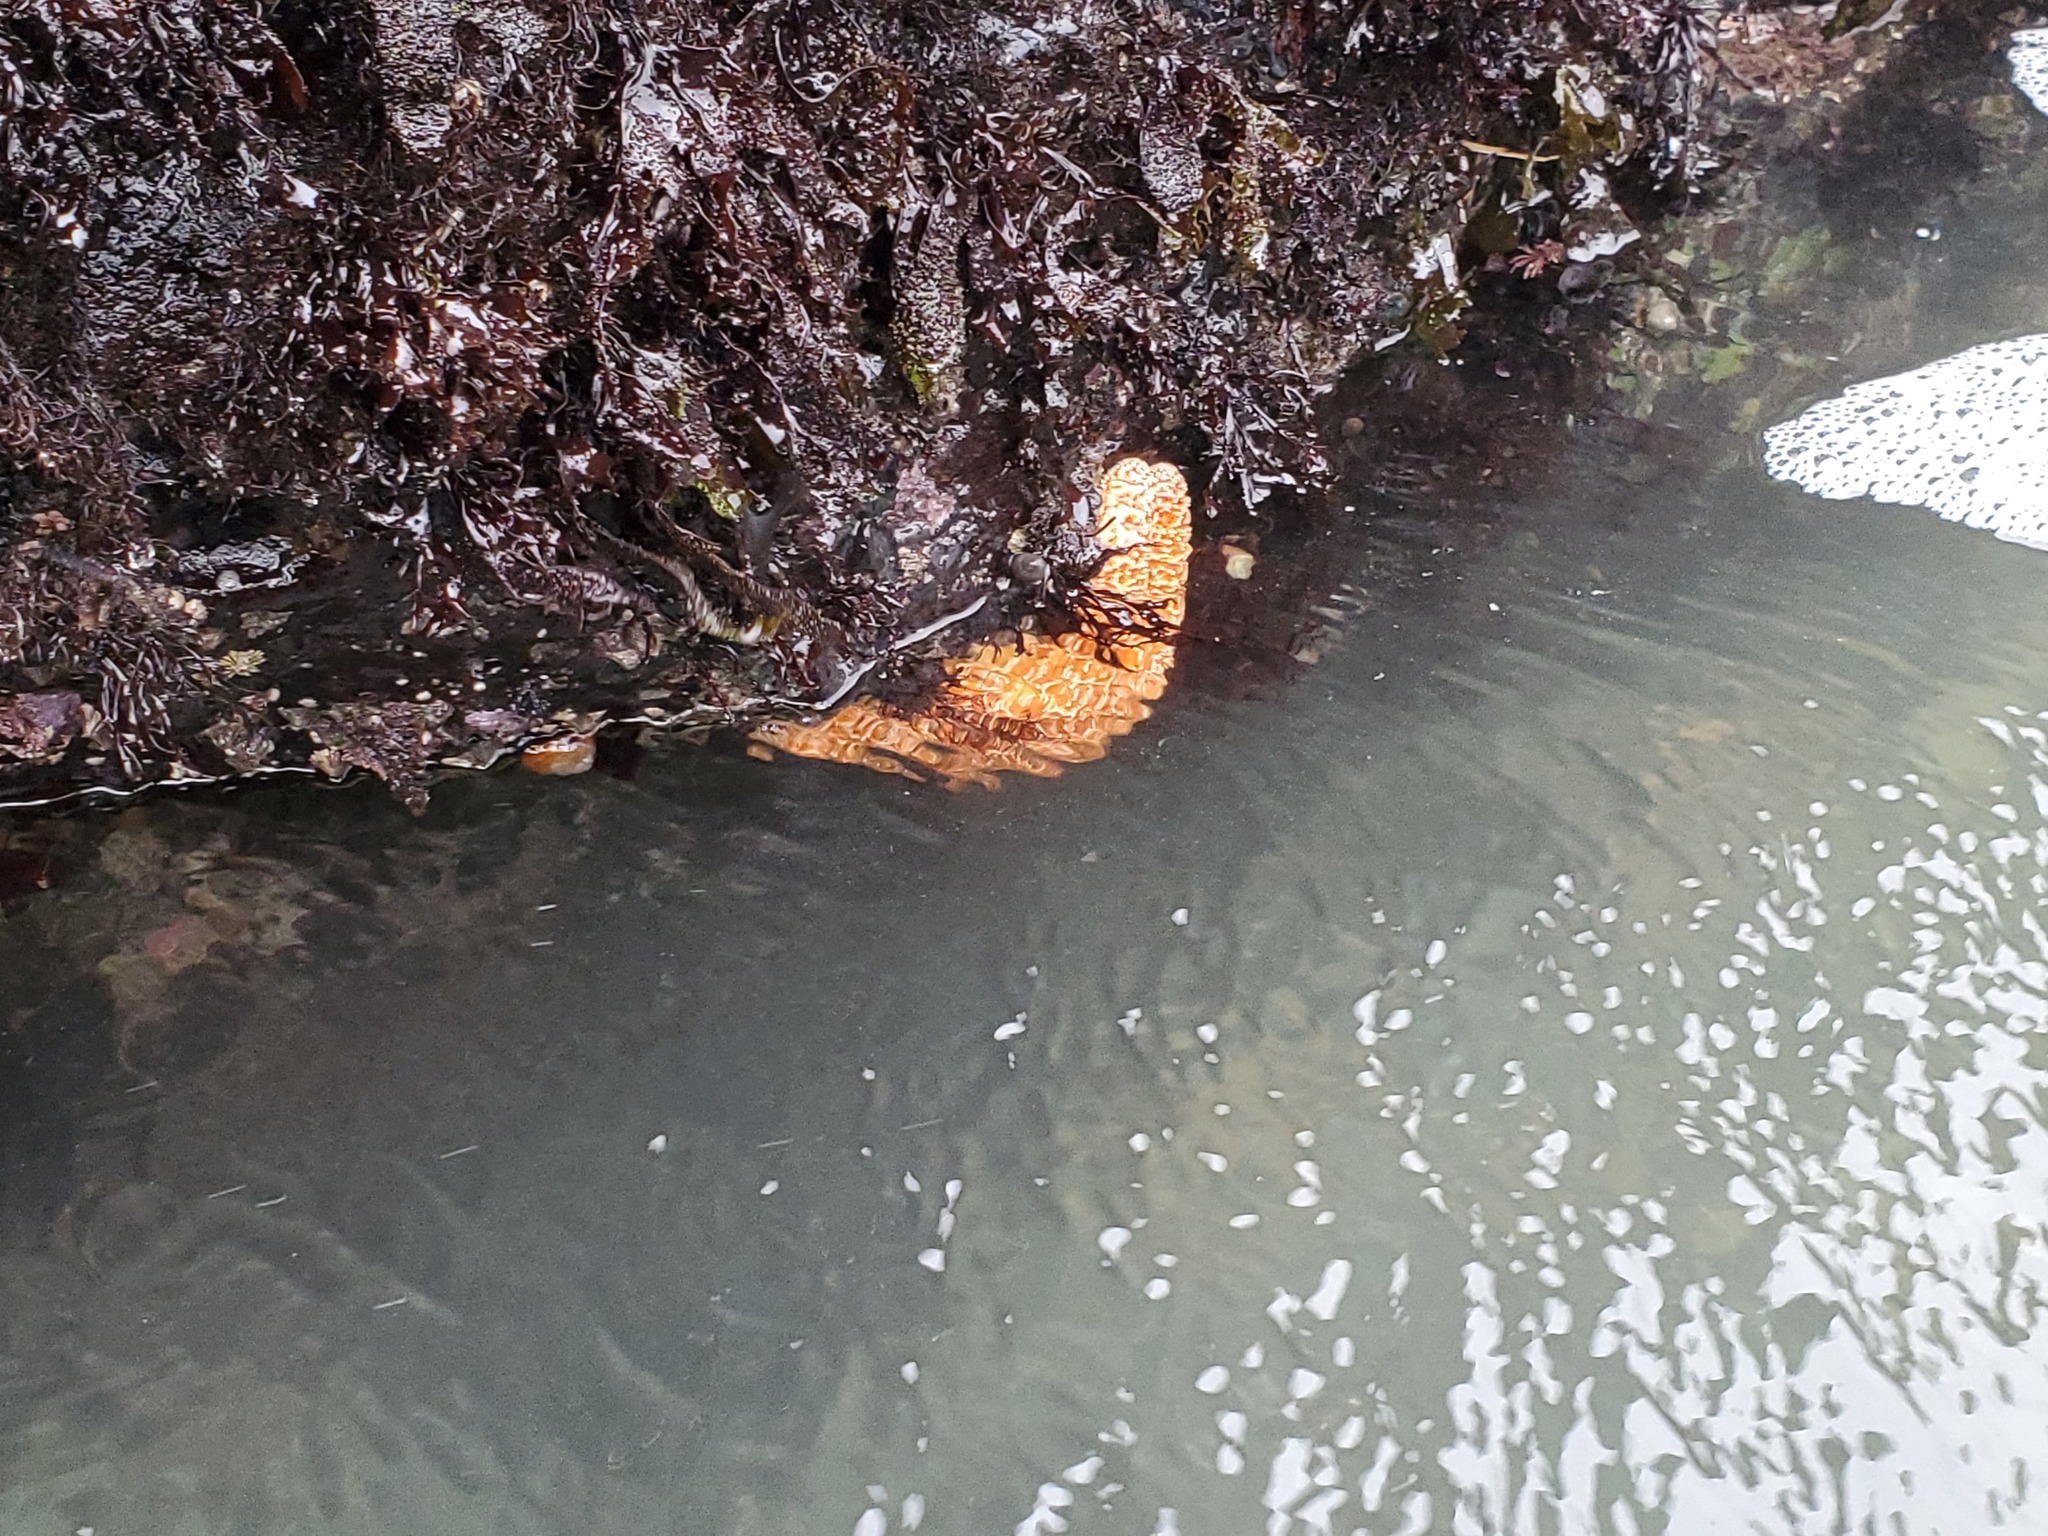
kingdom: Animalia
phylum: Echinodermata
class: Asteroidea
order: Forcipulatida
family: Asteriidae
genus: Pisaster
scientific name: Pisaster ochraceus
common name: Ochre stars
